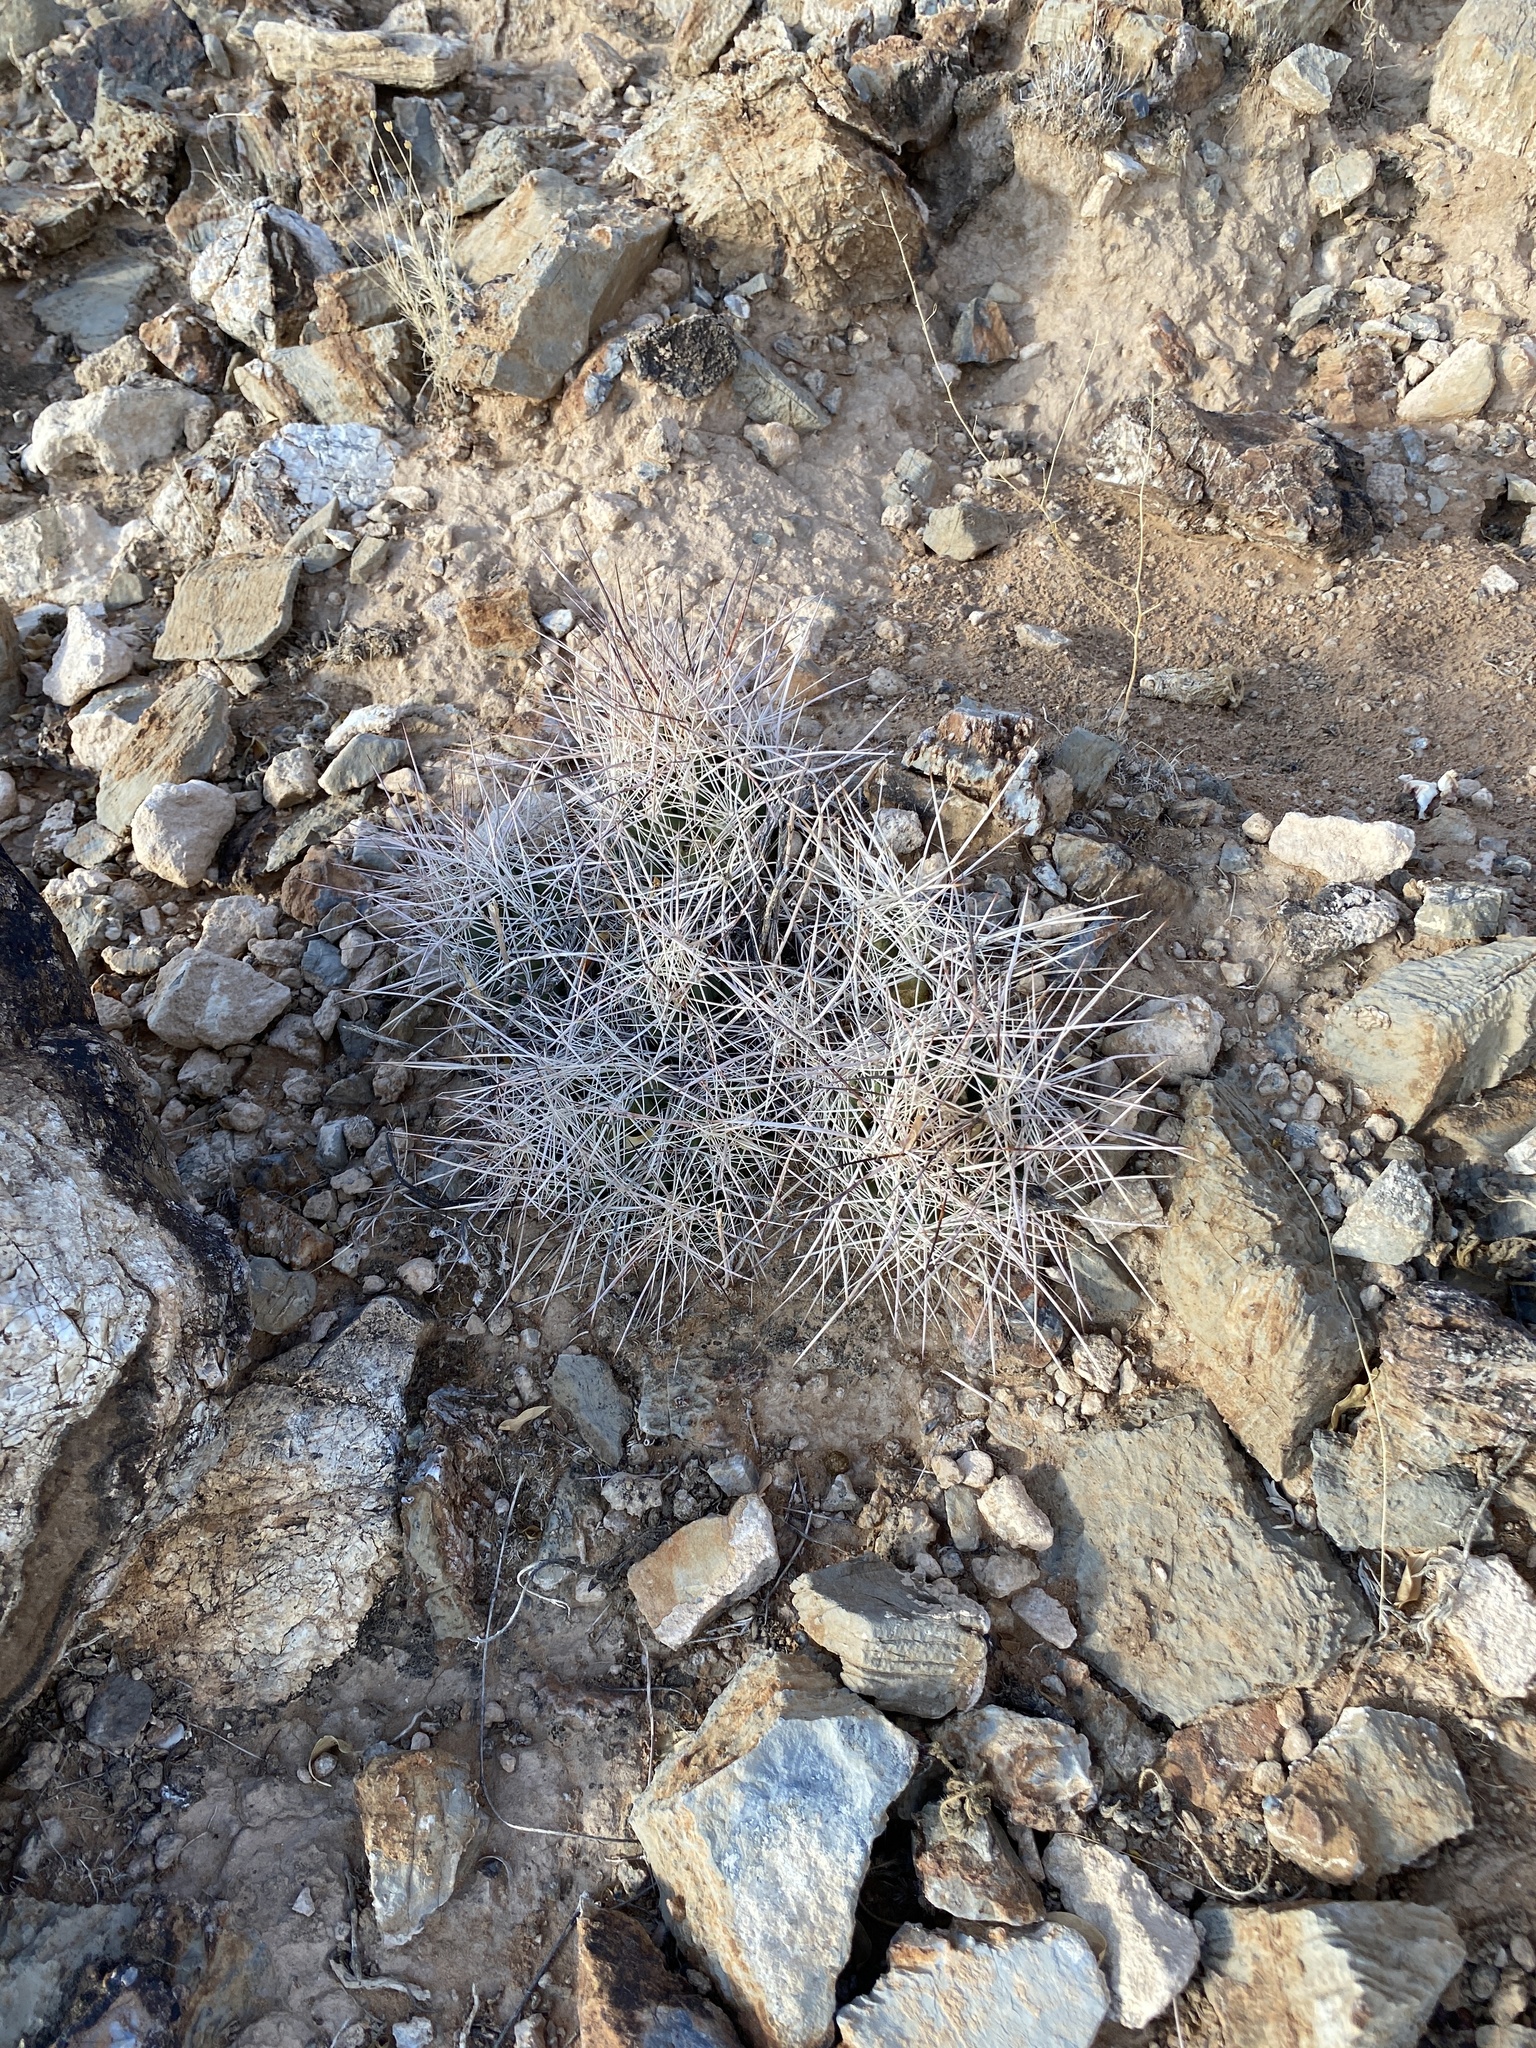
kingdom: Plantae
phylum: Tracheophyta
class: Magnoliopsida
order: Caryophyllales
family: Cactaceae
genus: Coryphantha
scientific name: Coryphantha macromeris
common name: Nipple beehive cactus
